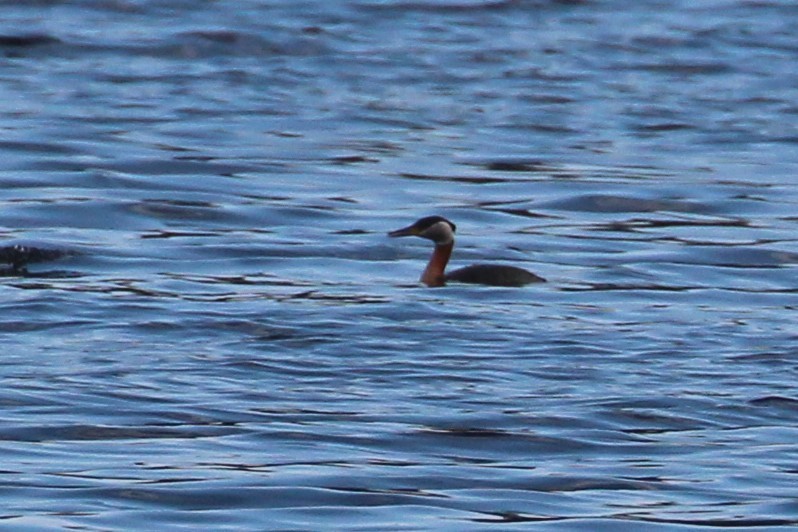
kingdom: Animalia
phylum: Chordata
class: Aves
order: Podicipediformes
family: Podicipedidae
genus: Podiceps
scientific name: Podiceps grisegena
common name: Red-necked grebe
